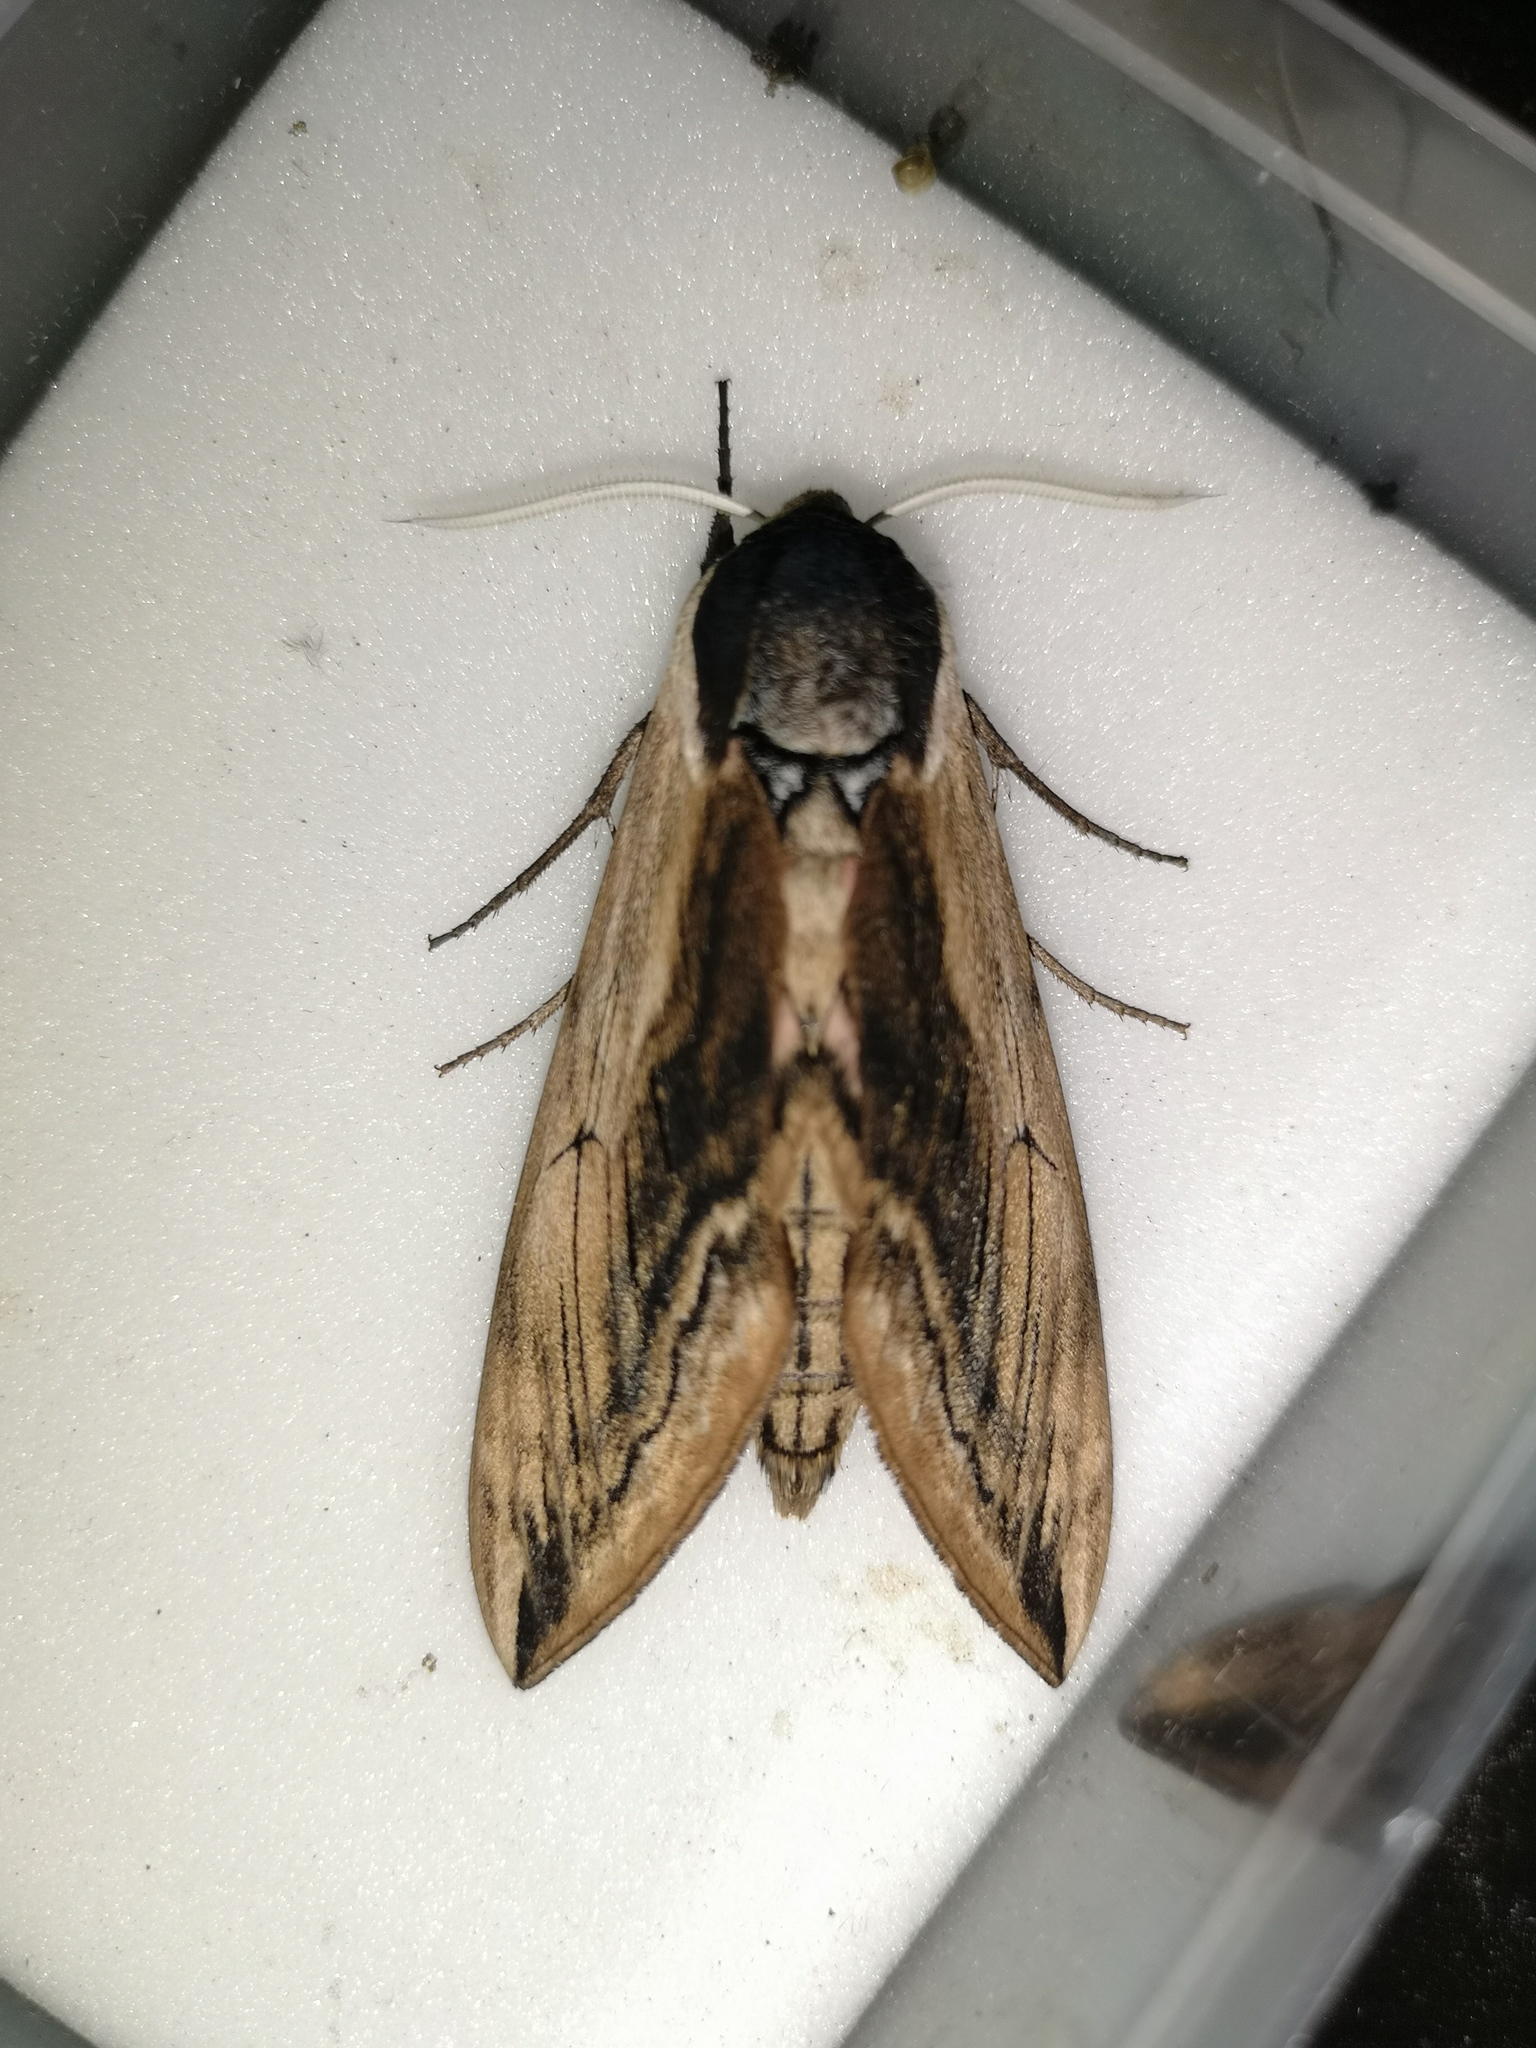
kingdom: Animalia
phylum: Arthropoda
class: Insecta
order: Lepidoptera
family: Sphingidae
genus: Sphinx
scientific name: Sphinx ligustri
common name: Privet hawk-moth
